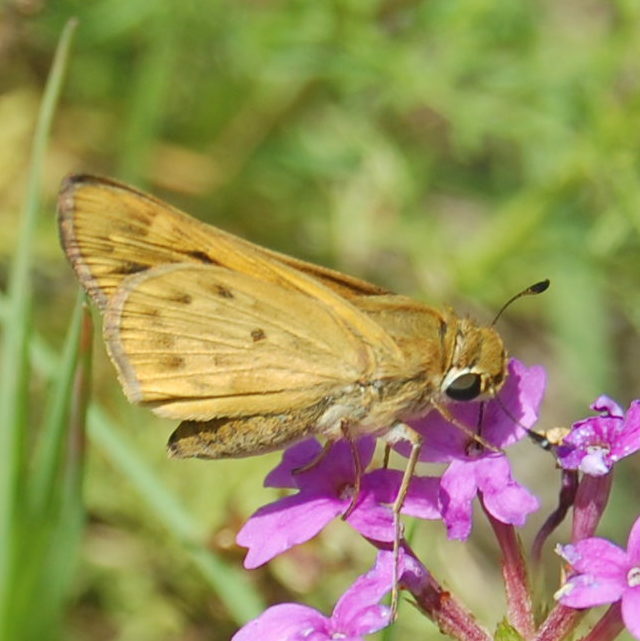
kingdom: Animalia
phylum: Arthropoda
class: Insecta
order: Lepidoptera
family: Hesperiidae
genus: Hylephila
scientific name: Hylephila phyleus
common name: Fiery skipper
